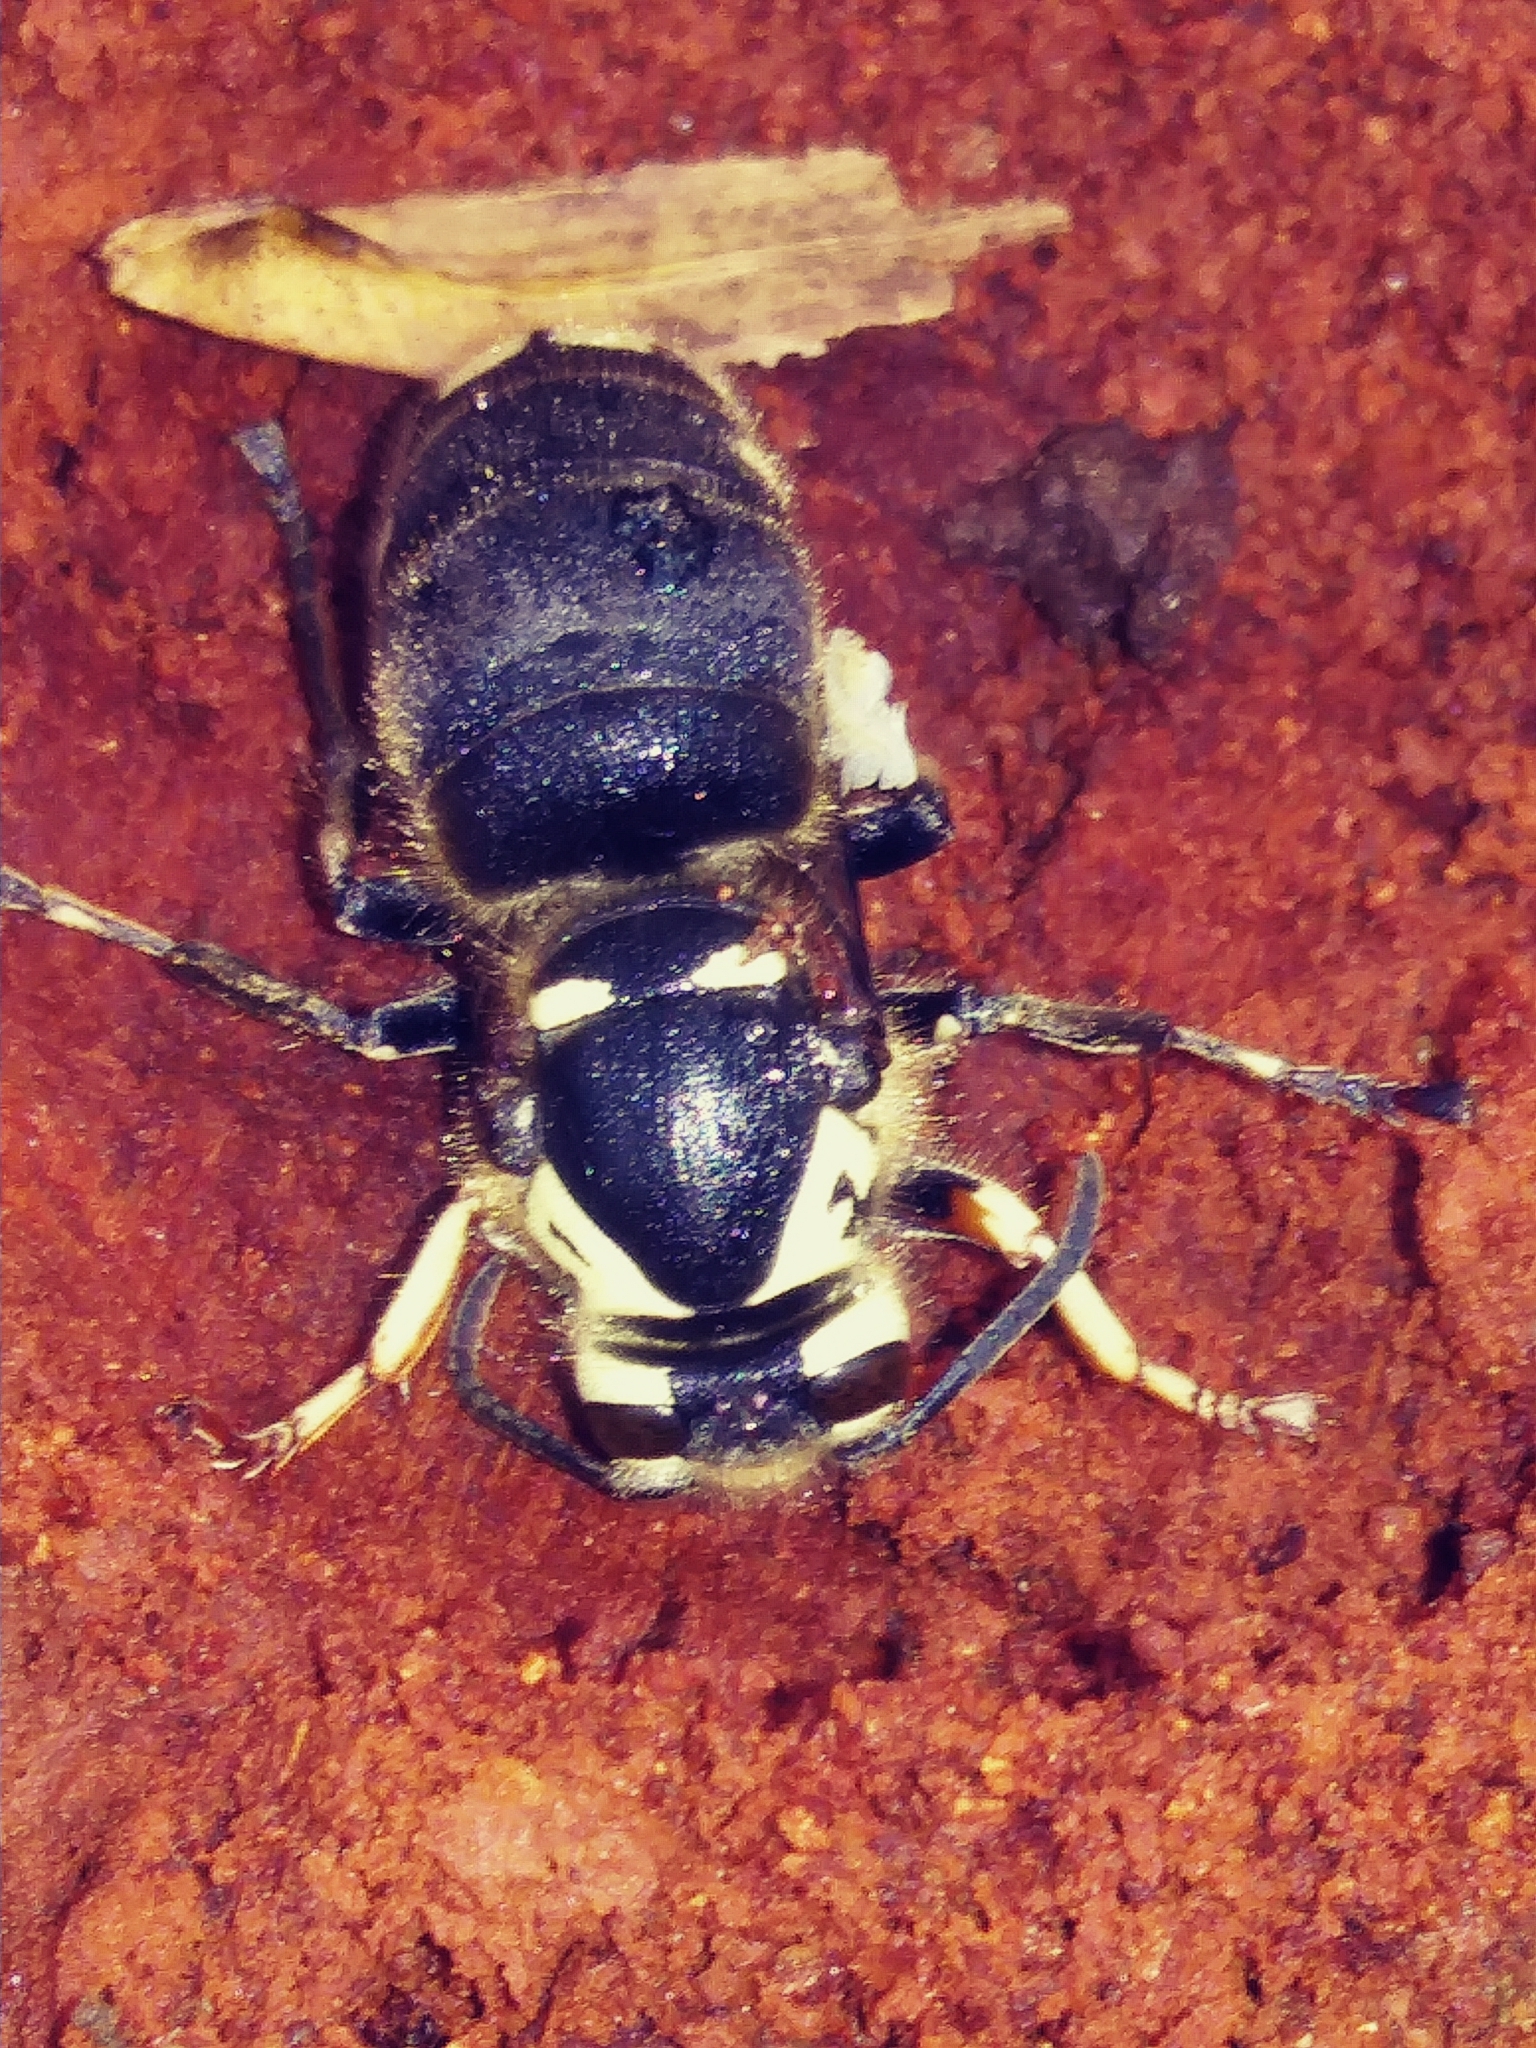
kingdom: Animalia
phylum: Arthropoda
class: Insecta
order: Hymenoptera
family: Vespidae
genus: Dolichovespula
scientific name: Dolichovespula maculata
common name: Bald-faced hornet
